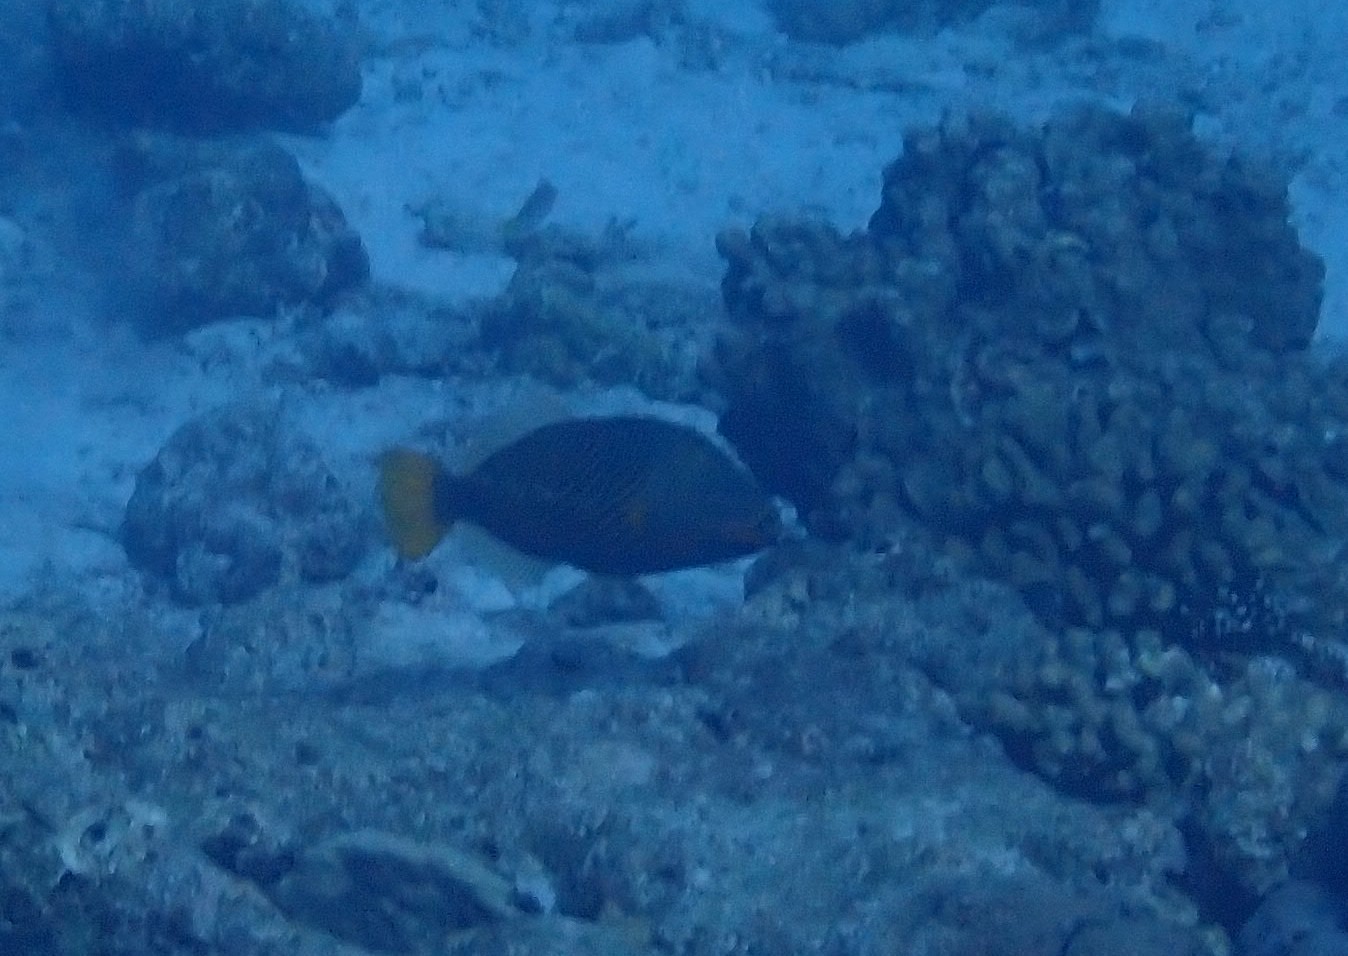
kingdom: Animalia
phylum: Chordata
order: Tetraodontiformes
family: Balistidae
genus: Balistapus
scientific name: Balistapus undulatus
